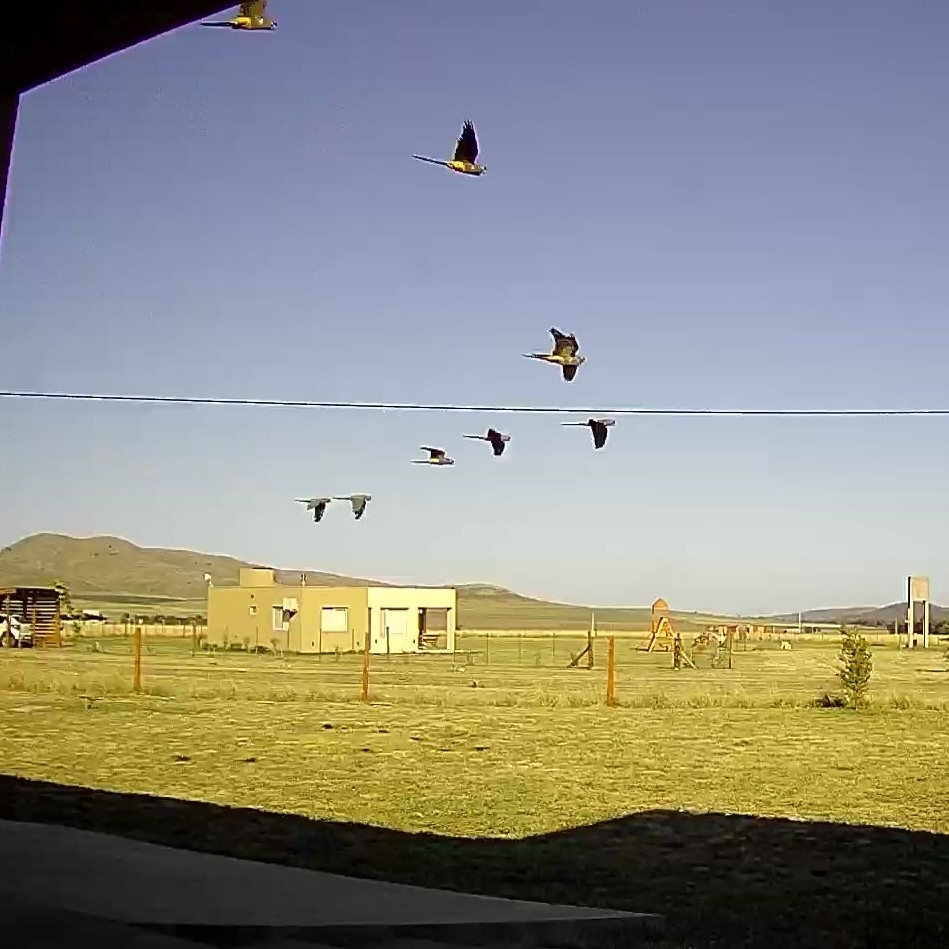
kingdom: Animalia
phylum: Chordata
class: Aves
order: Psittaciformes
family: Psittacidae
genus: Cyanoliseus
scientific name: Cyanoliseus patagonus
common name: Burrowing parrot
